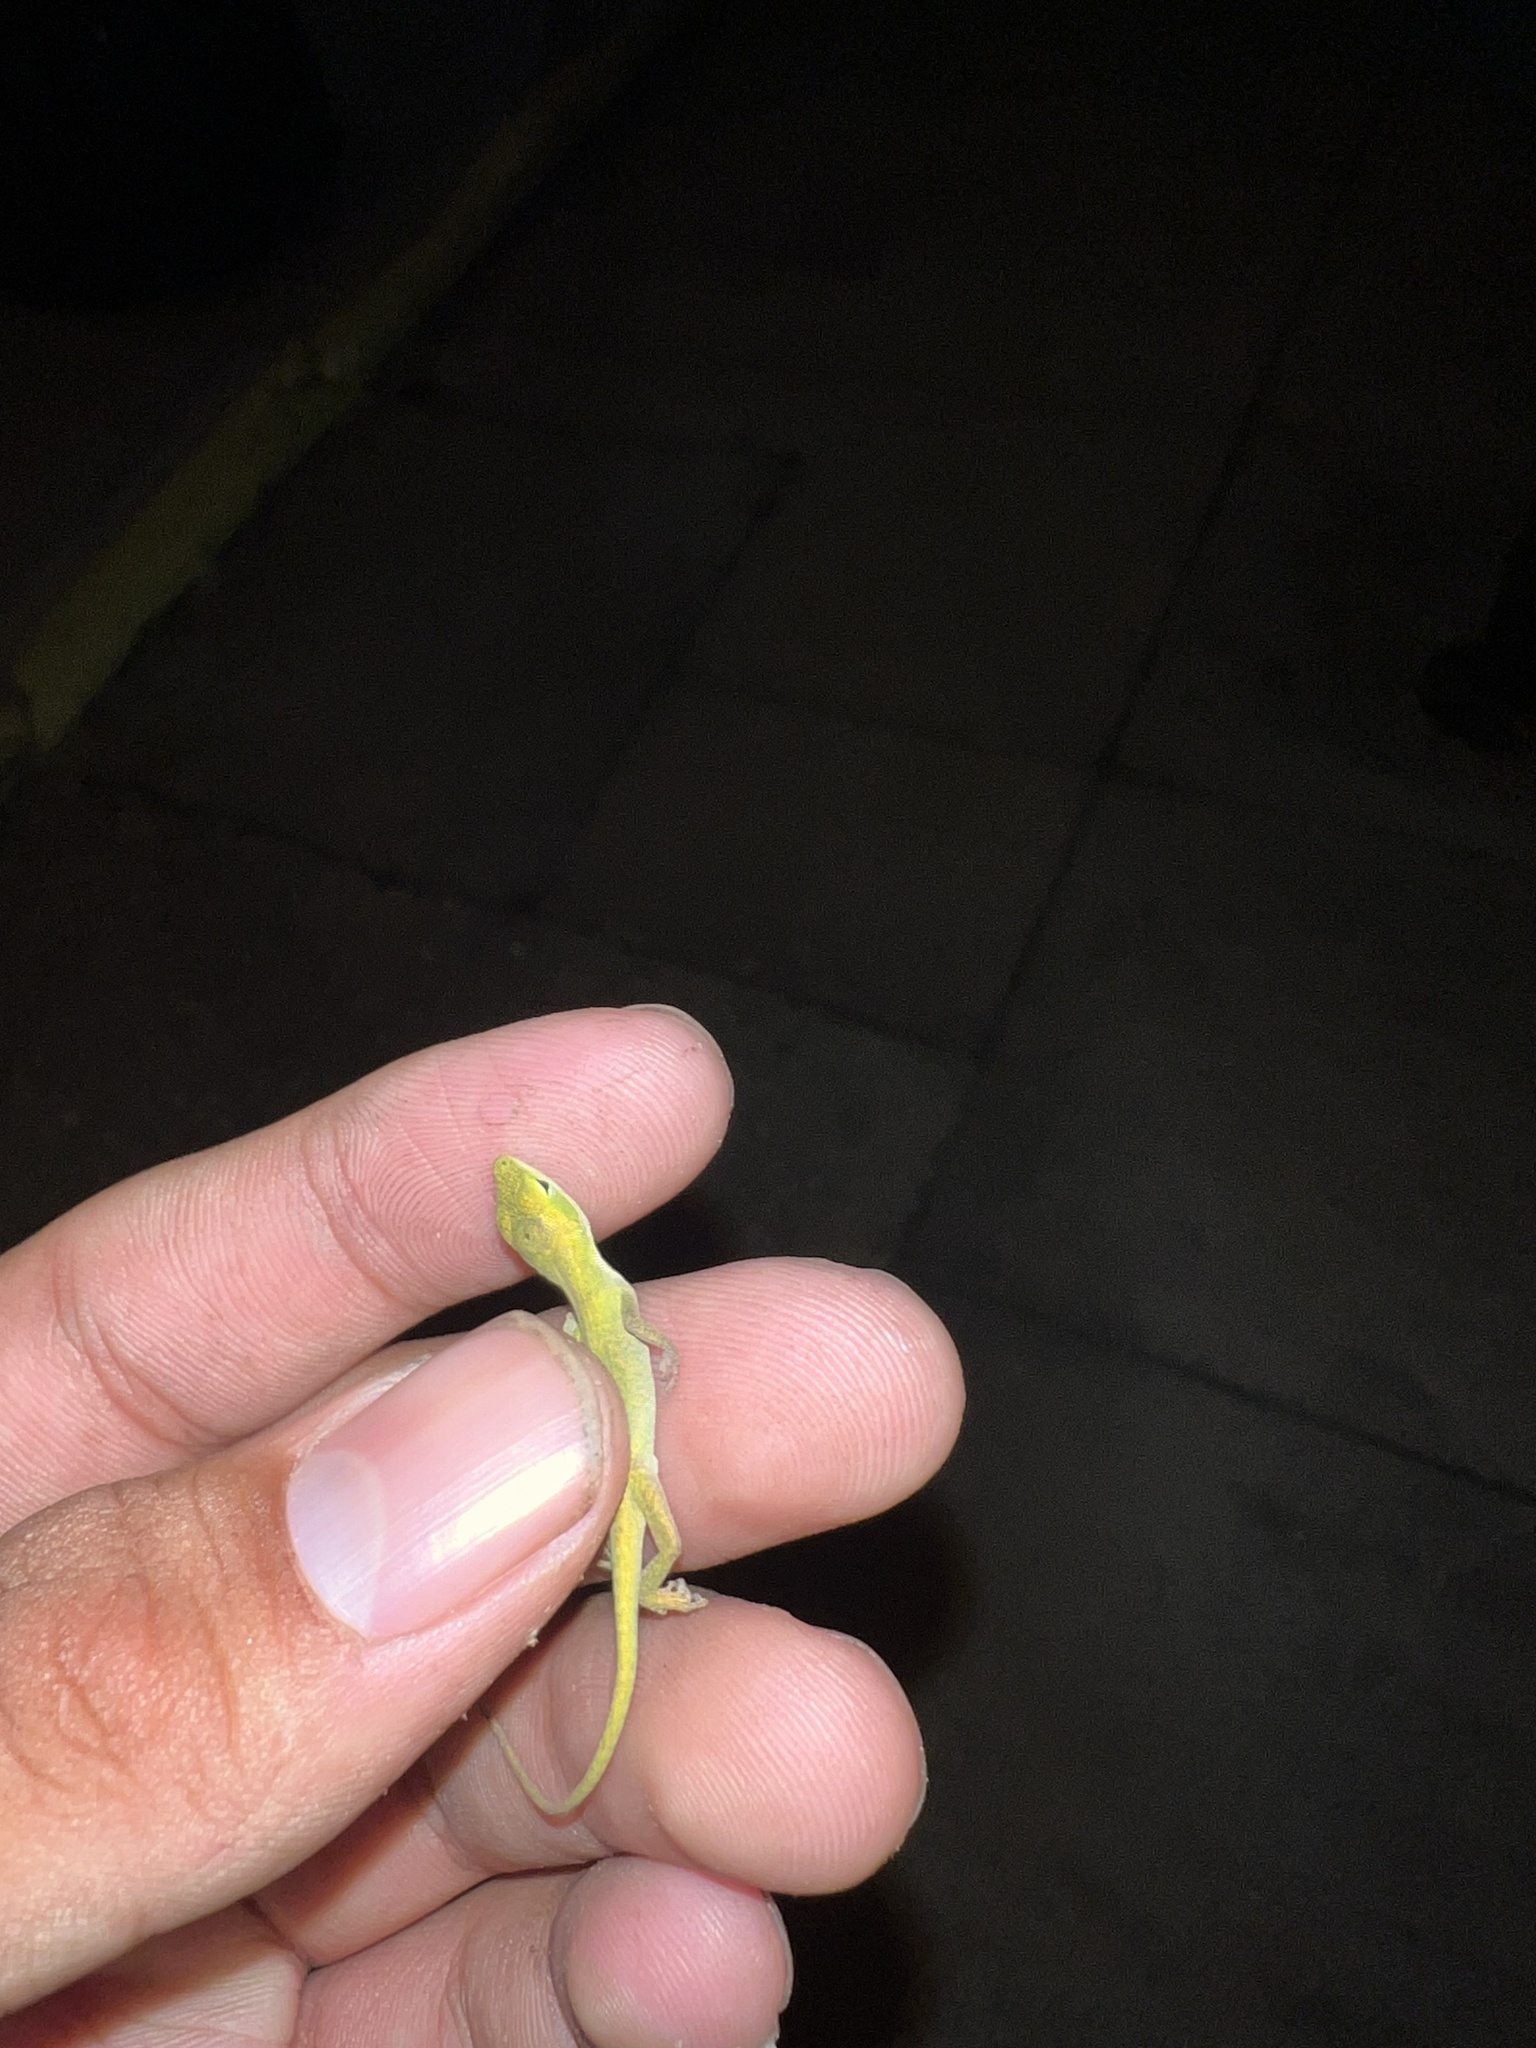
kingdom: Animalia
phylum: Chordata
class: Squamata
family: Dactyloidae
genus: Anolis
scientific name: Anolis carolinensis
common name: Green anole
